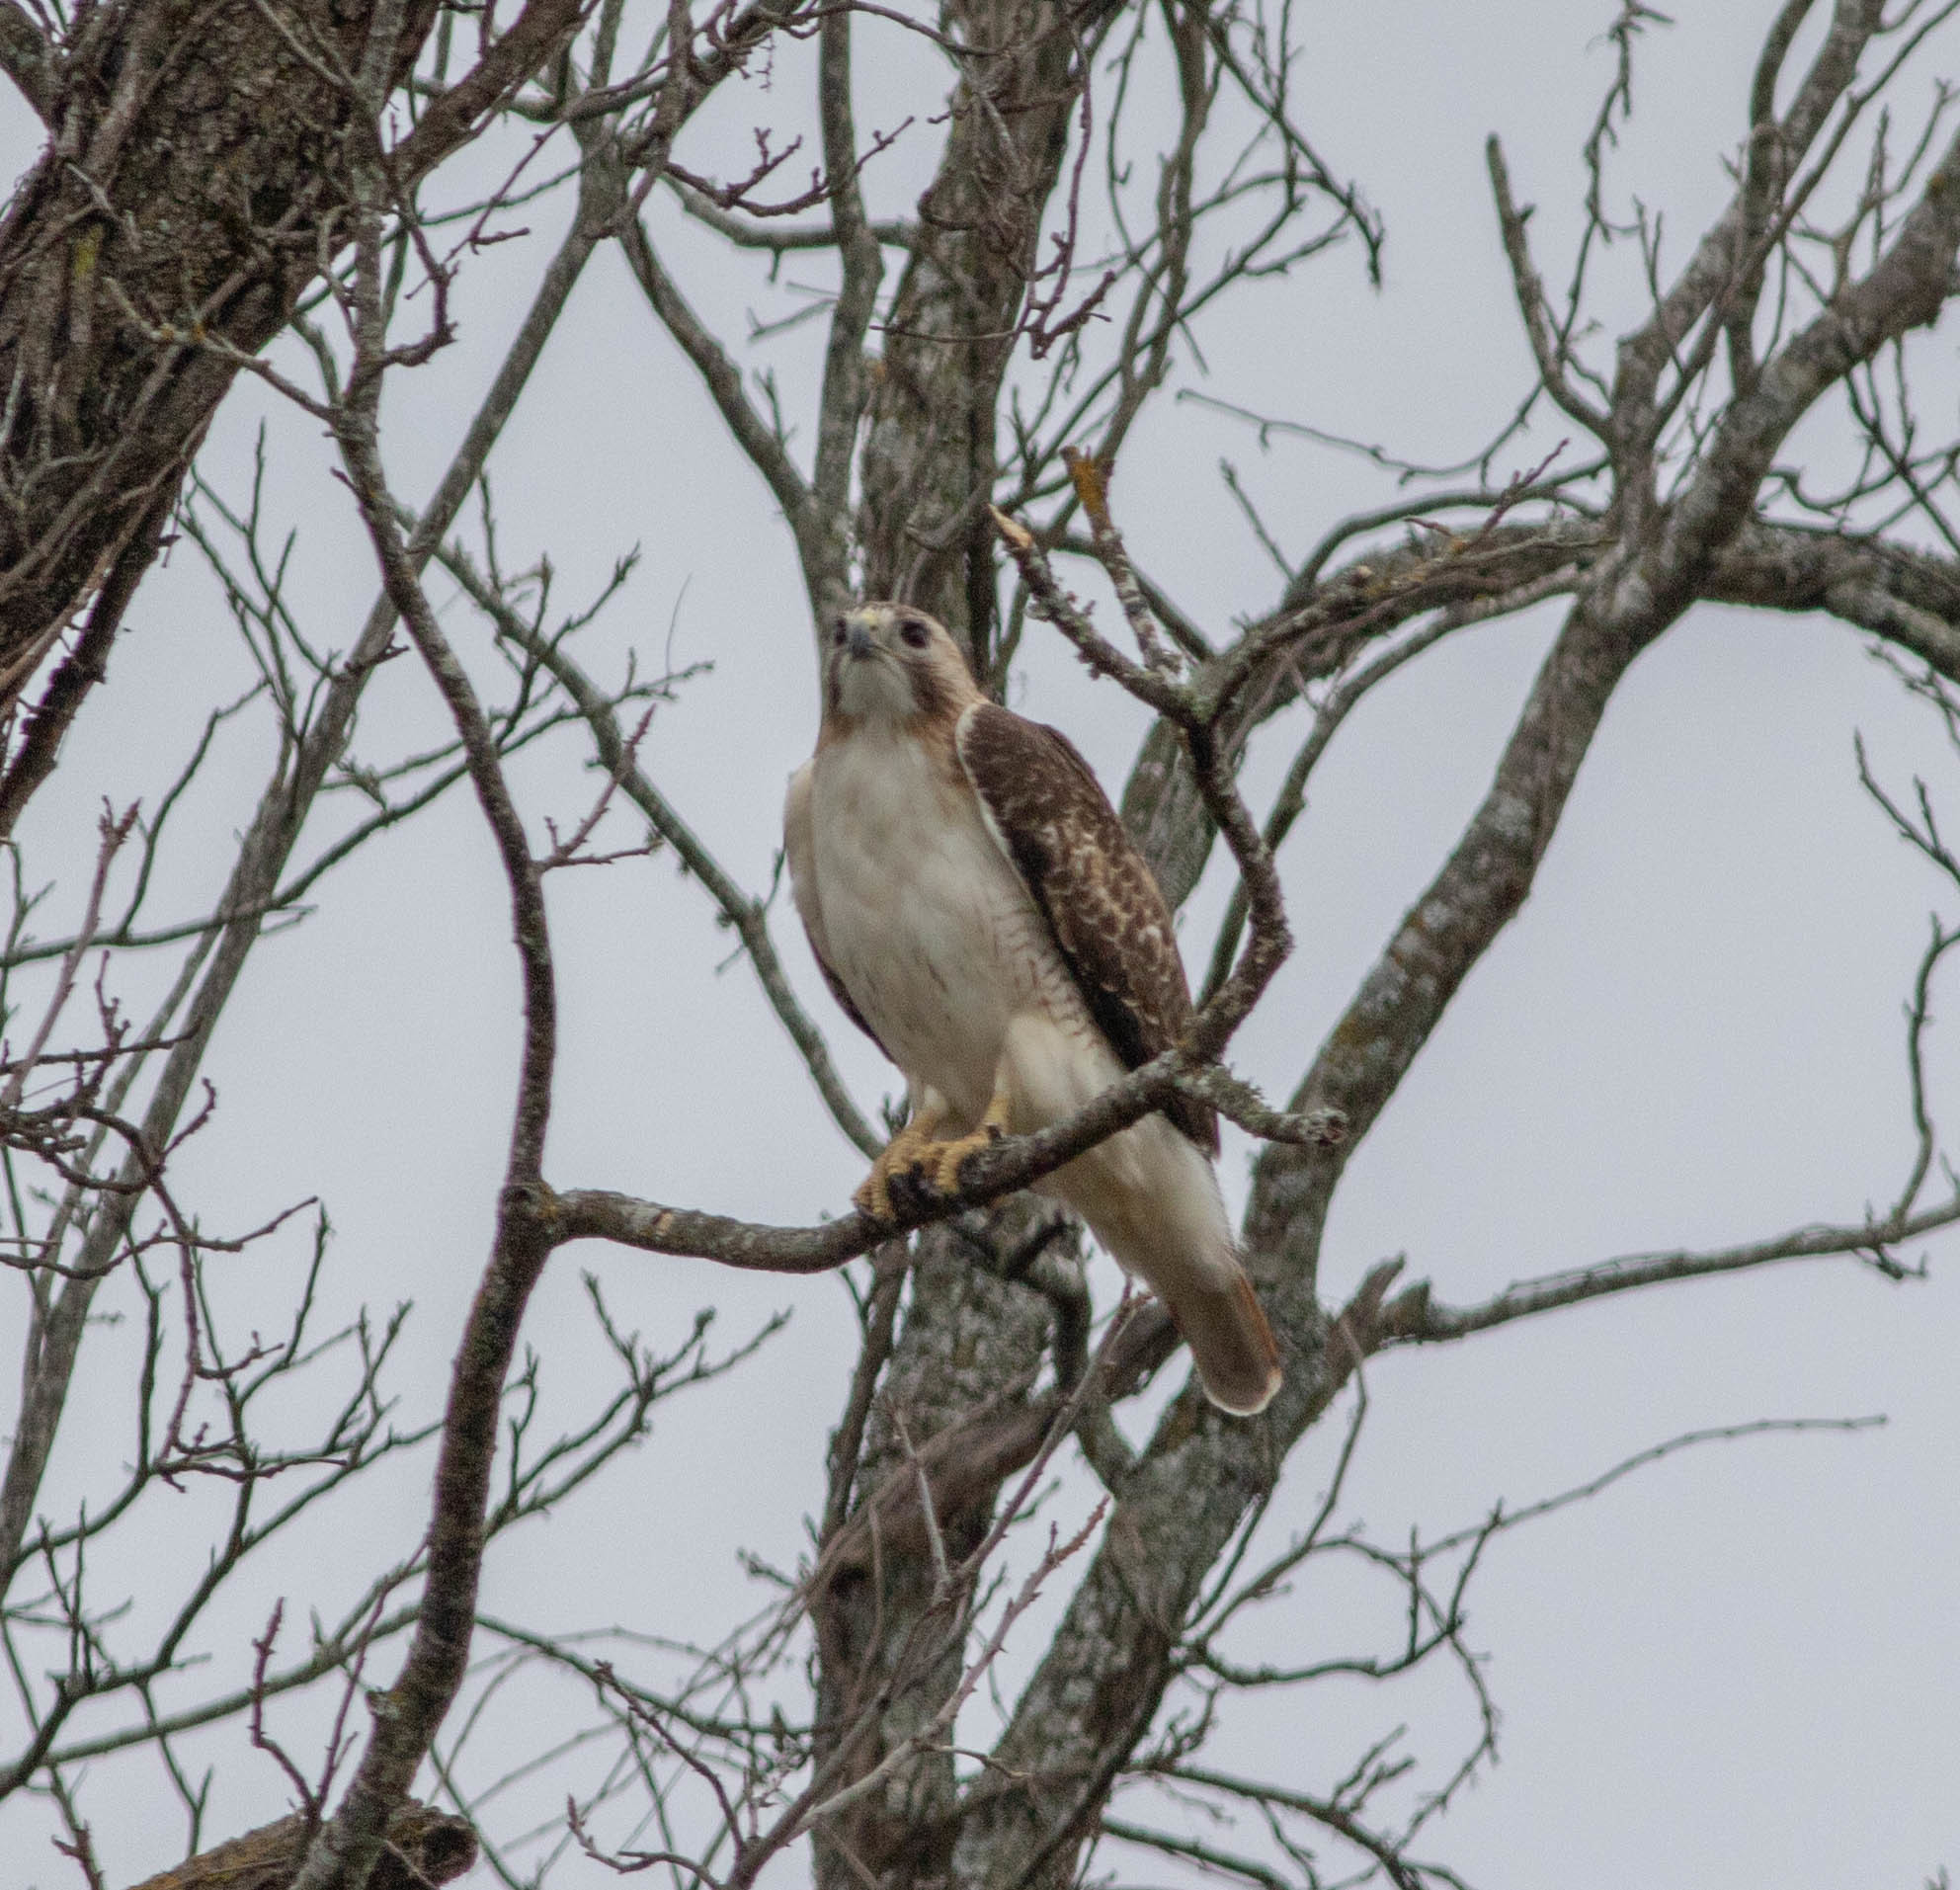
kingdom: Animalia
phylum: Chordata
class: Aves
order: Accipitriformes
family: Accipitridae
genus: Buteo
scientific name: Buteo jamaicensis
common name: Red-tailed hawk
